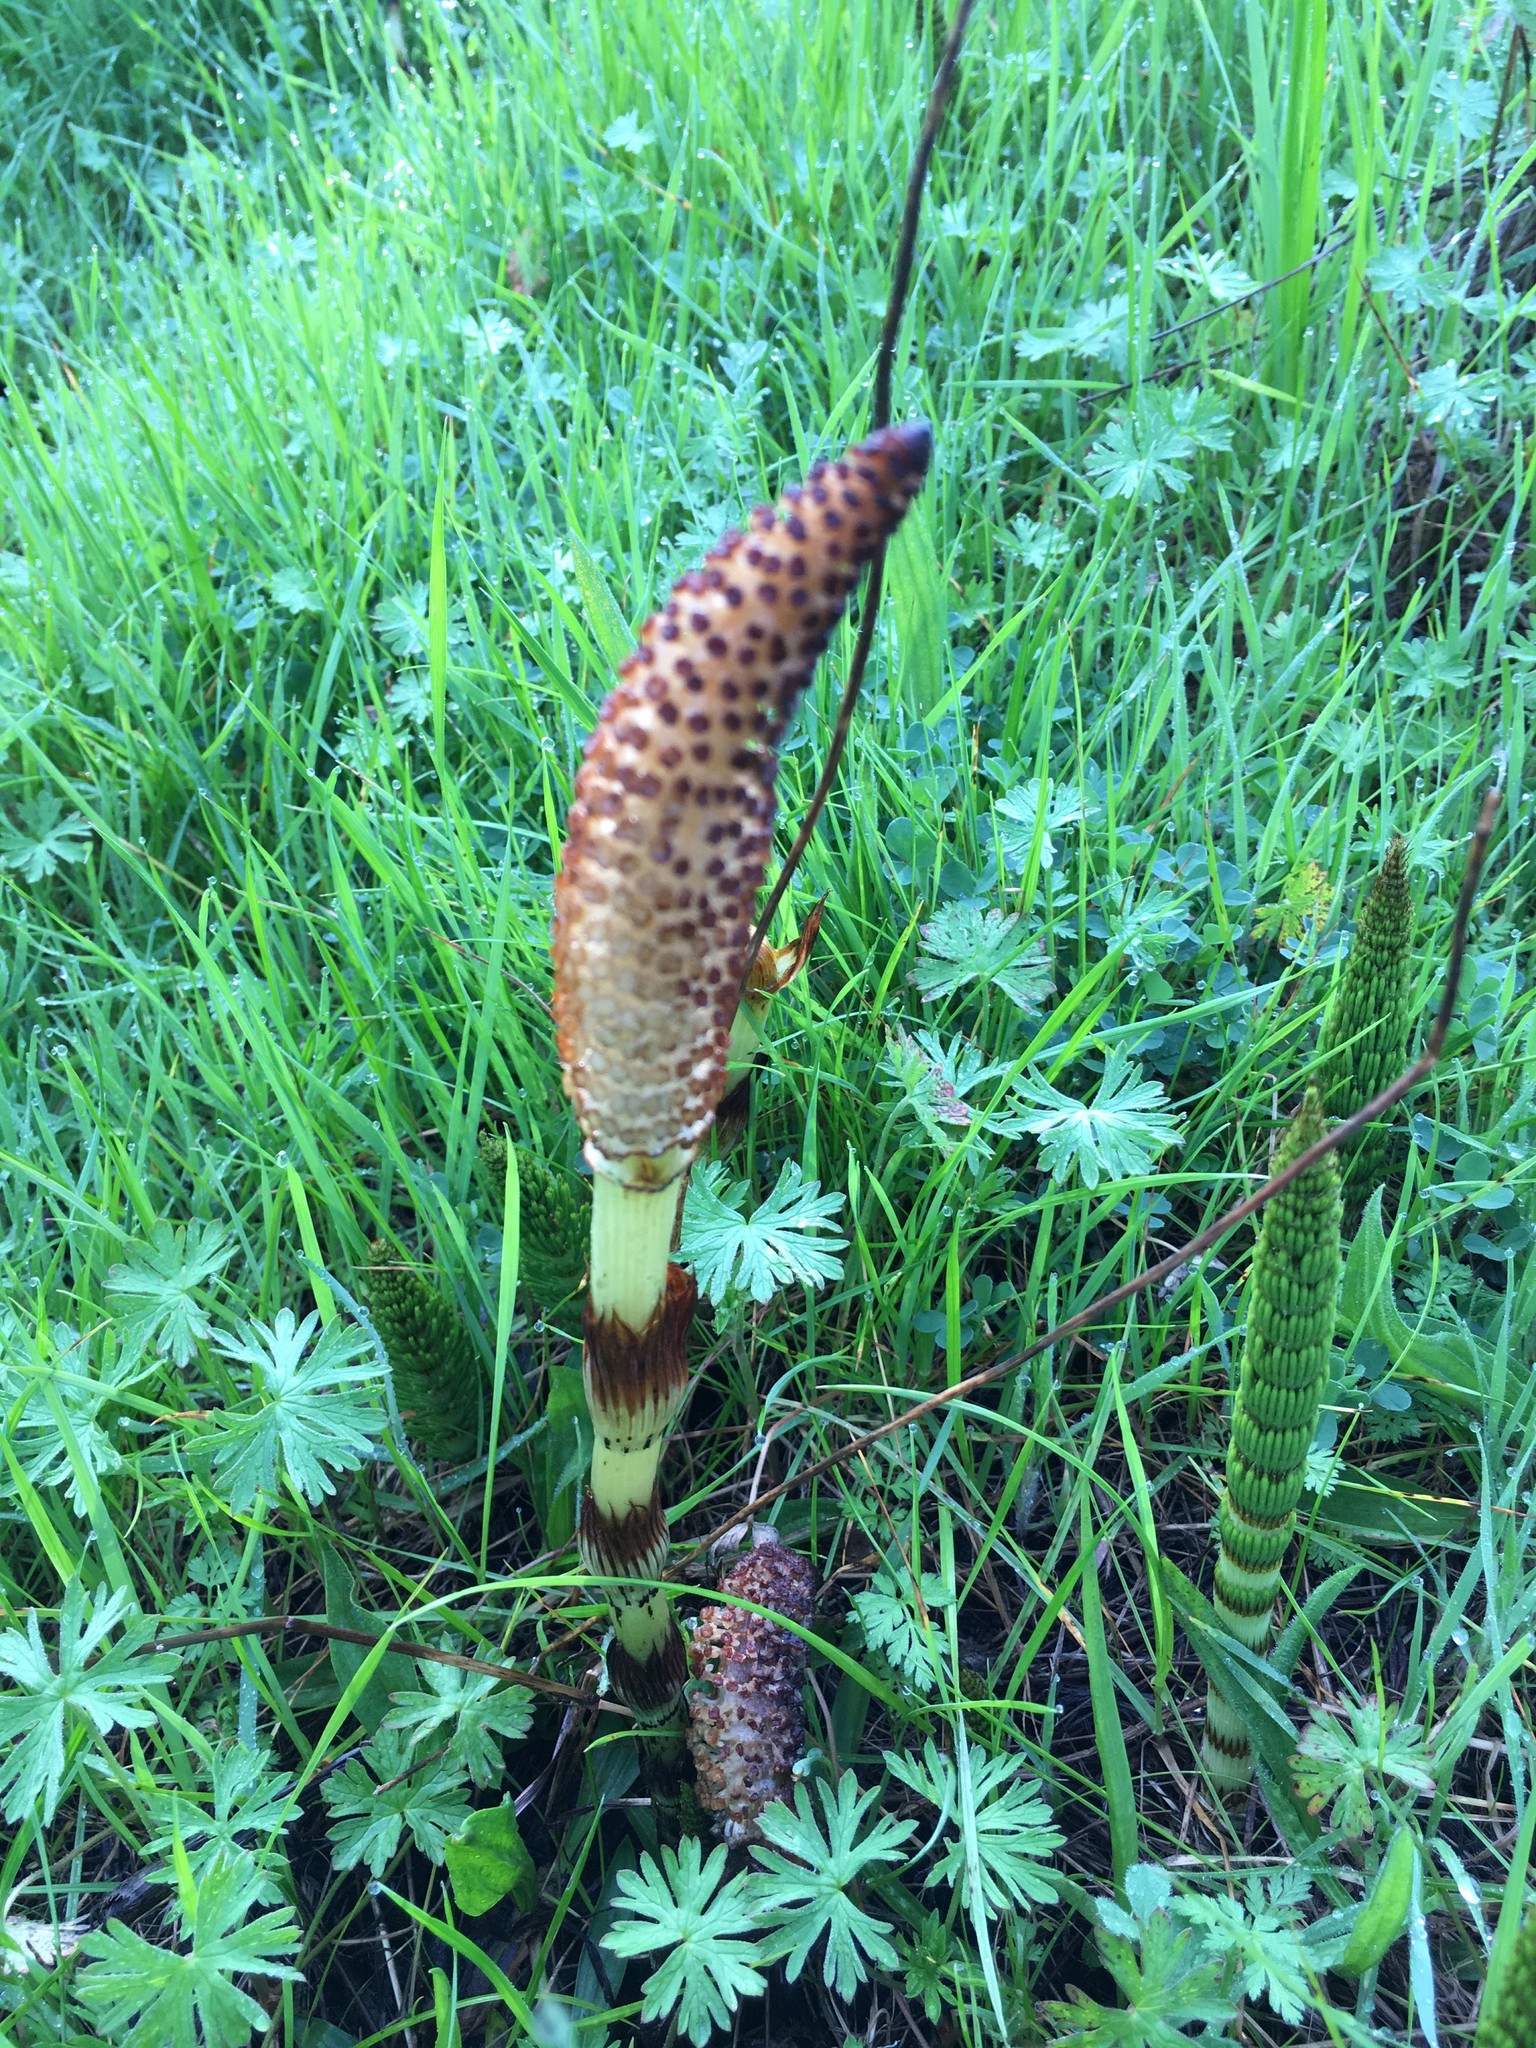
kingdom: Plantae
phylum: Tracheophyta
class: Polypodiopsida
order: Equisetales
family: Equisetaceae
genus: Equisetum
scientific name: Equisetum telmateia
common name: Great horsetail
